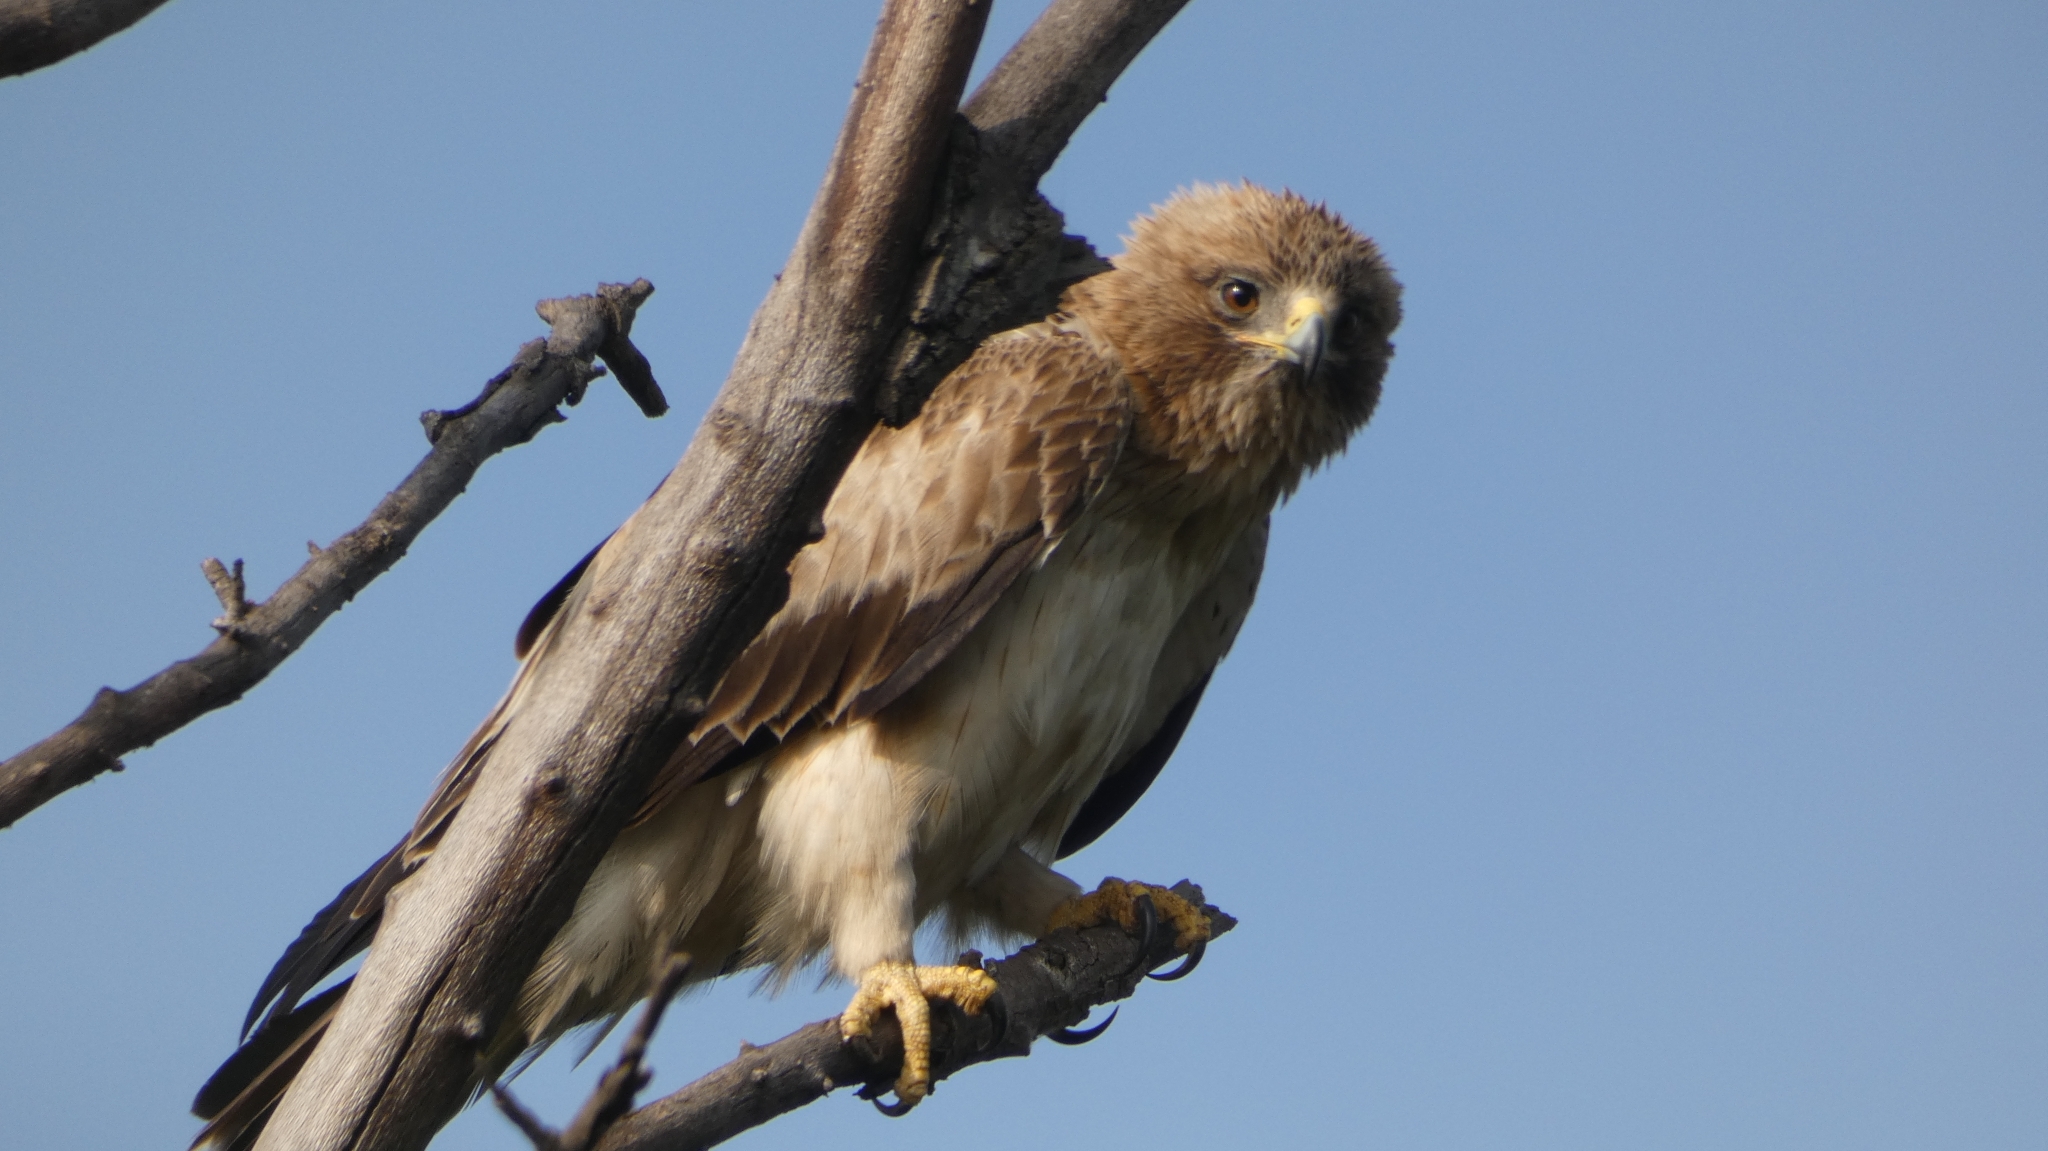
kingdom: Animalia
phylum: Chordata
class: Aves
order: Accipitriformes
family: Accipitridae
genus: Hieraaetus
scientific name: Hieraaetus pennatus
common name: Booted eagle
